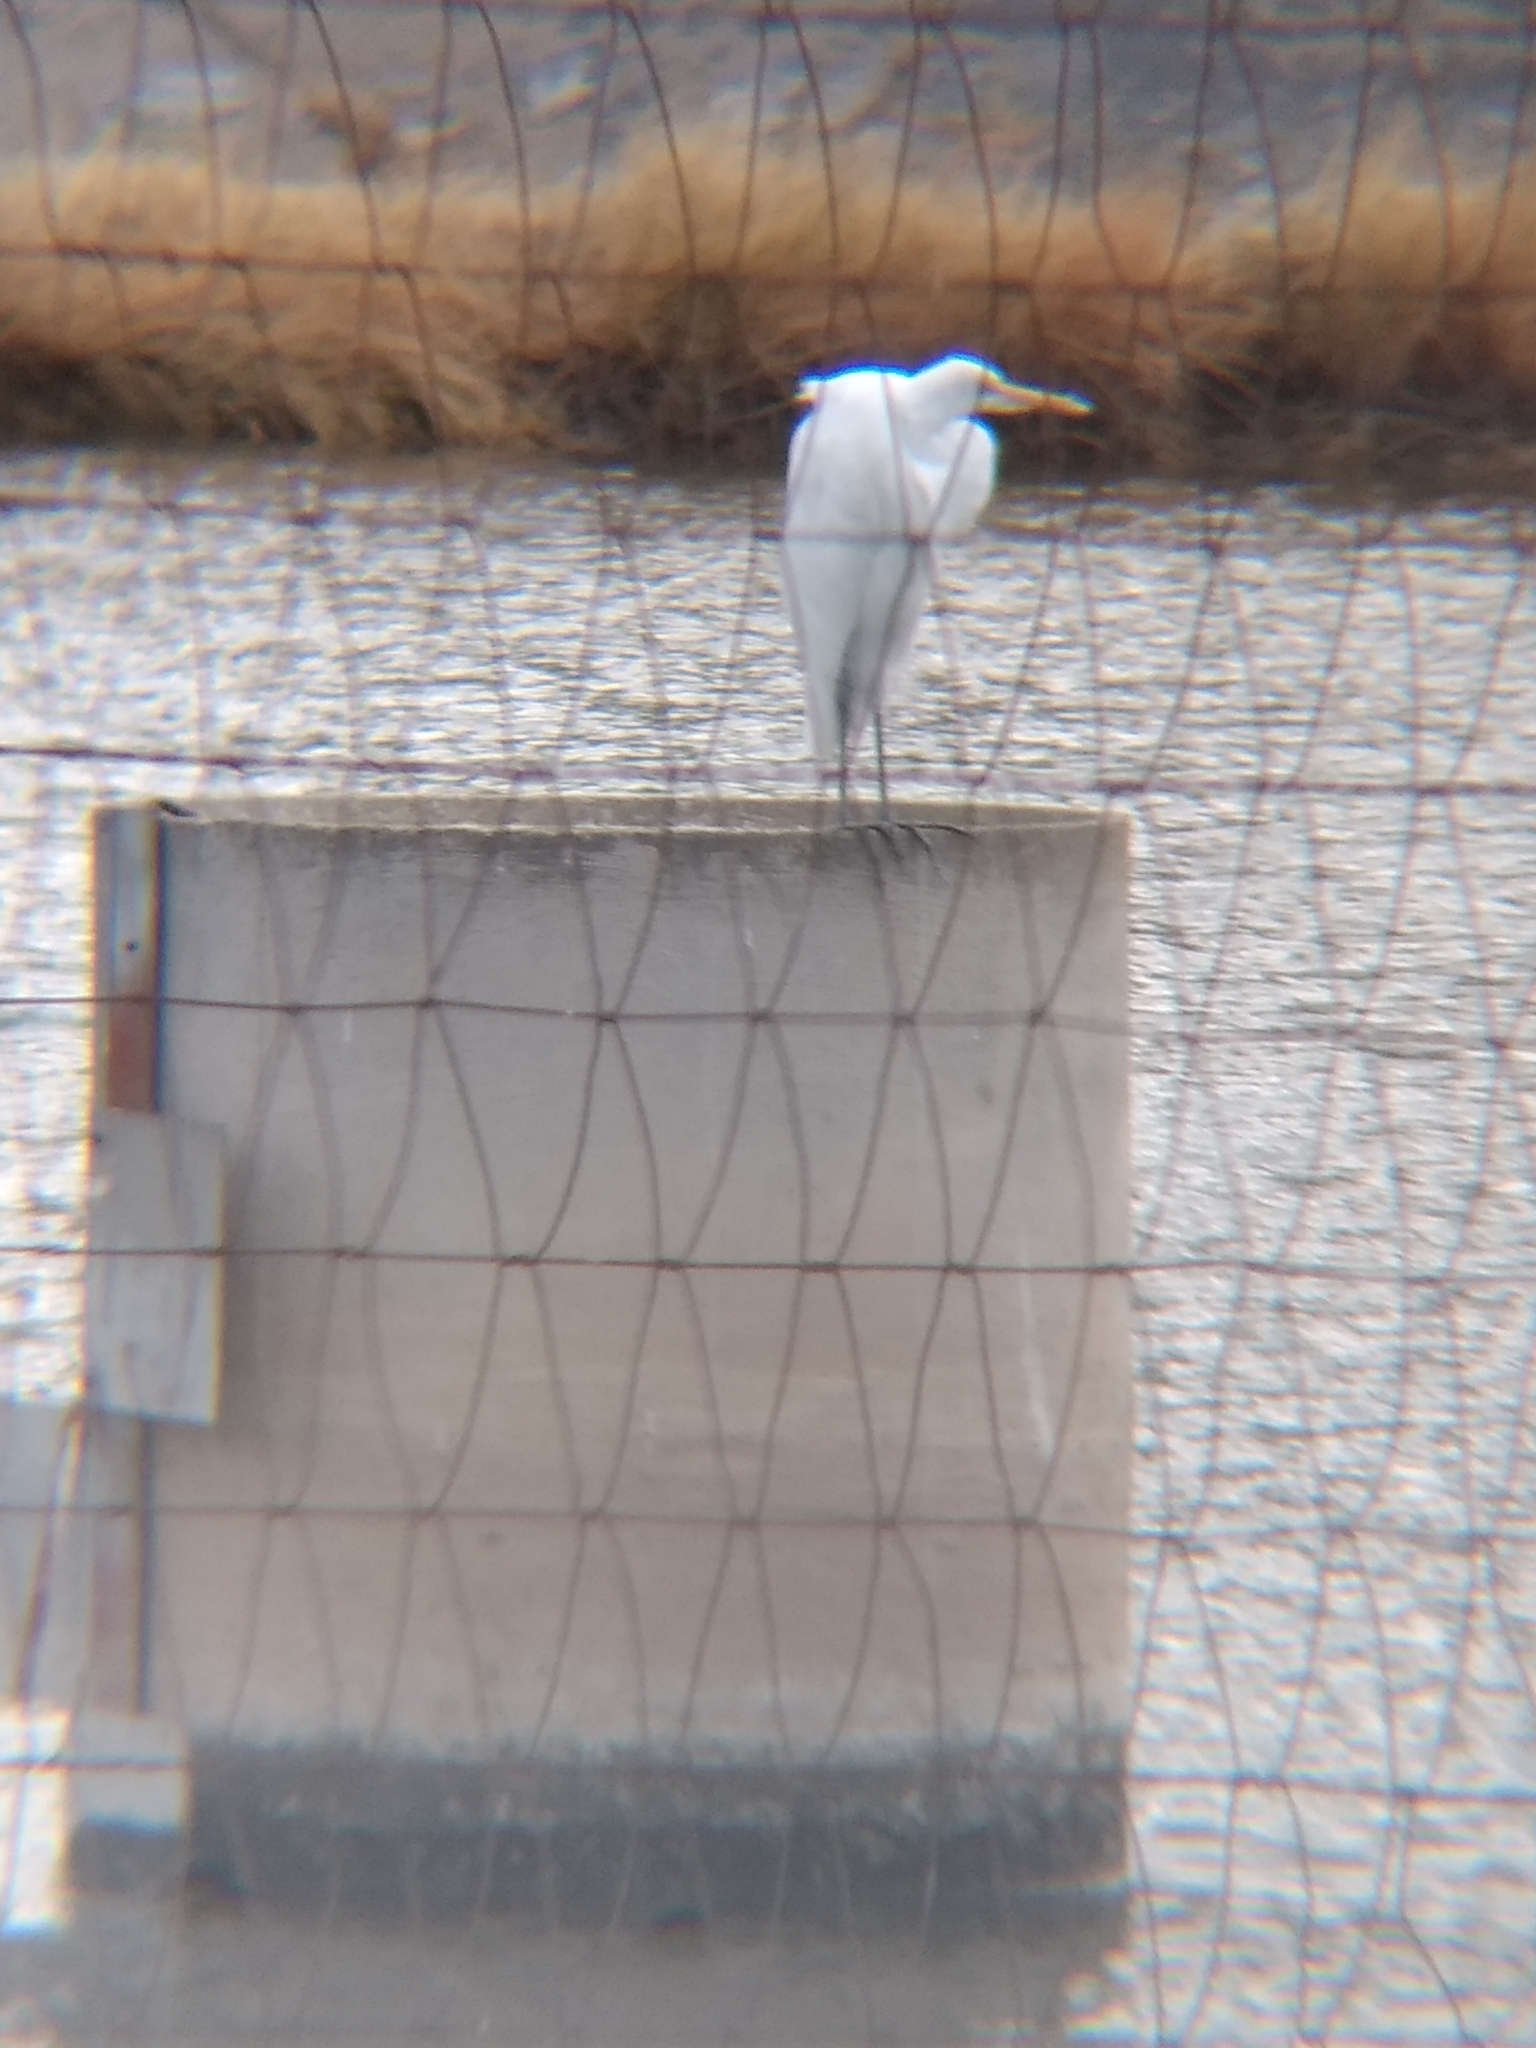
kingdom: Animalia
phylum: Chordata
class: Aves
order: Pelecaniformes
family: Ardeidae
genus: Ardea
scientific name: Ardea alba
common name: Great egret
